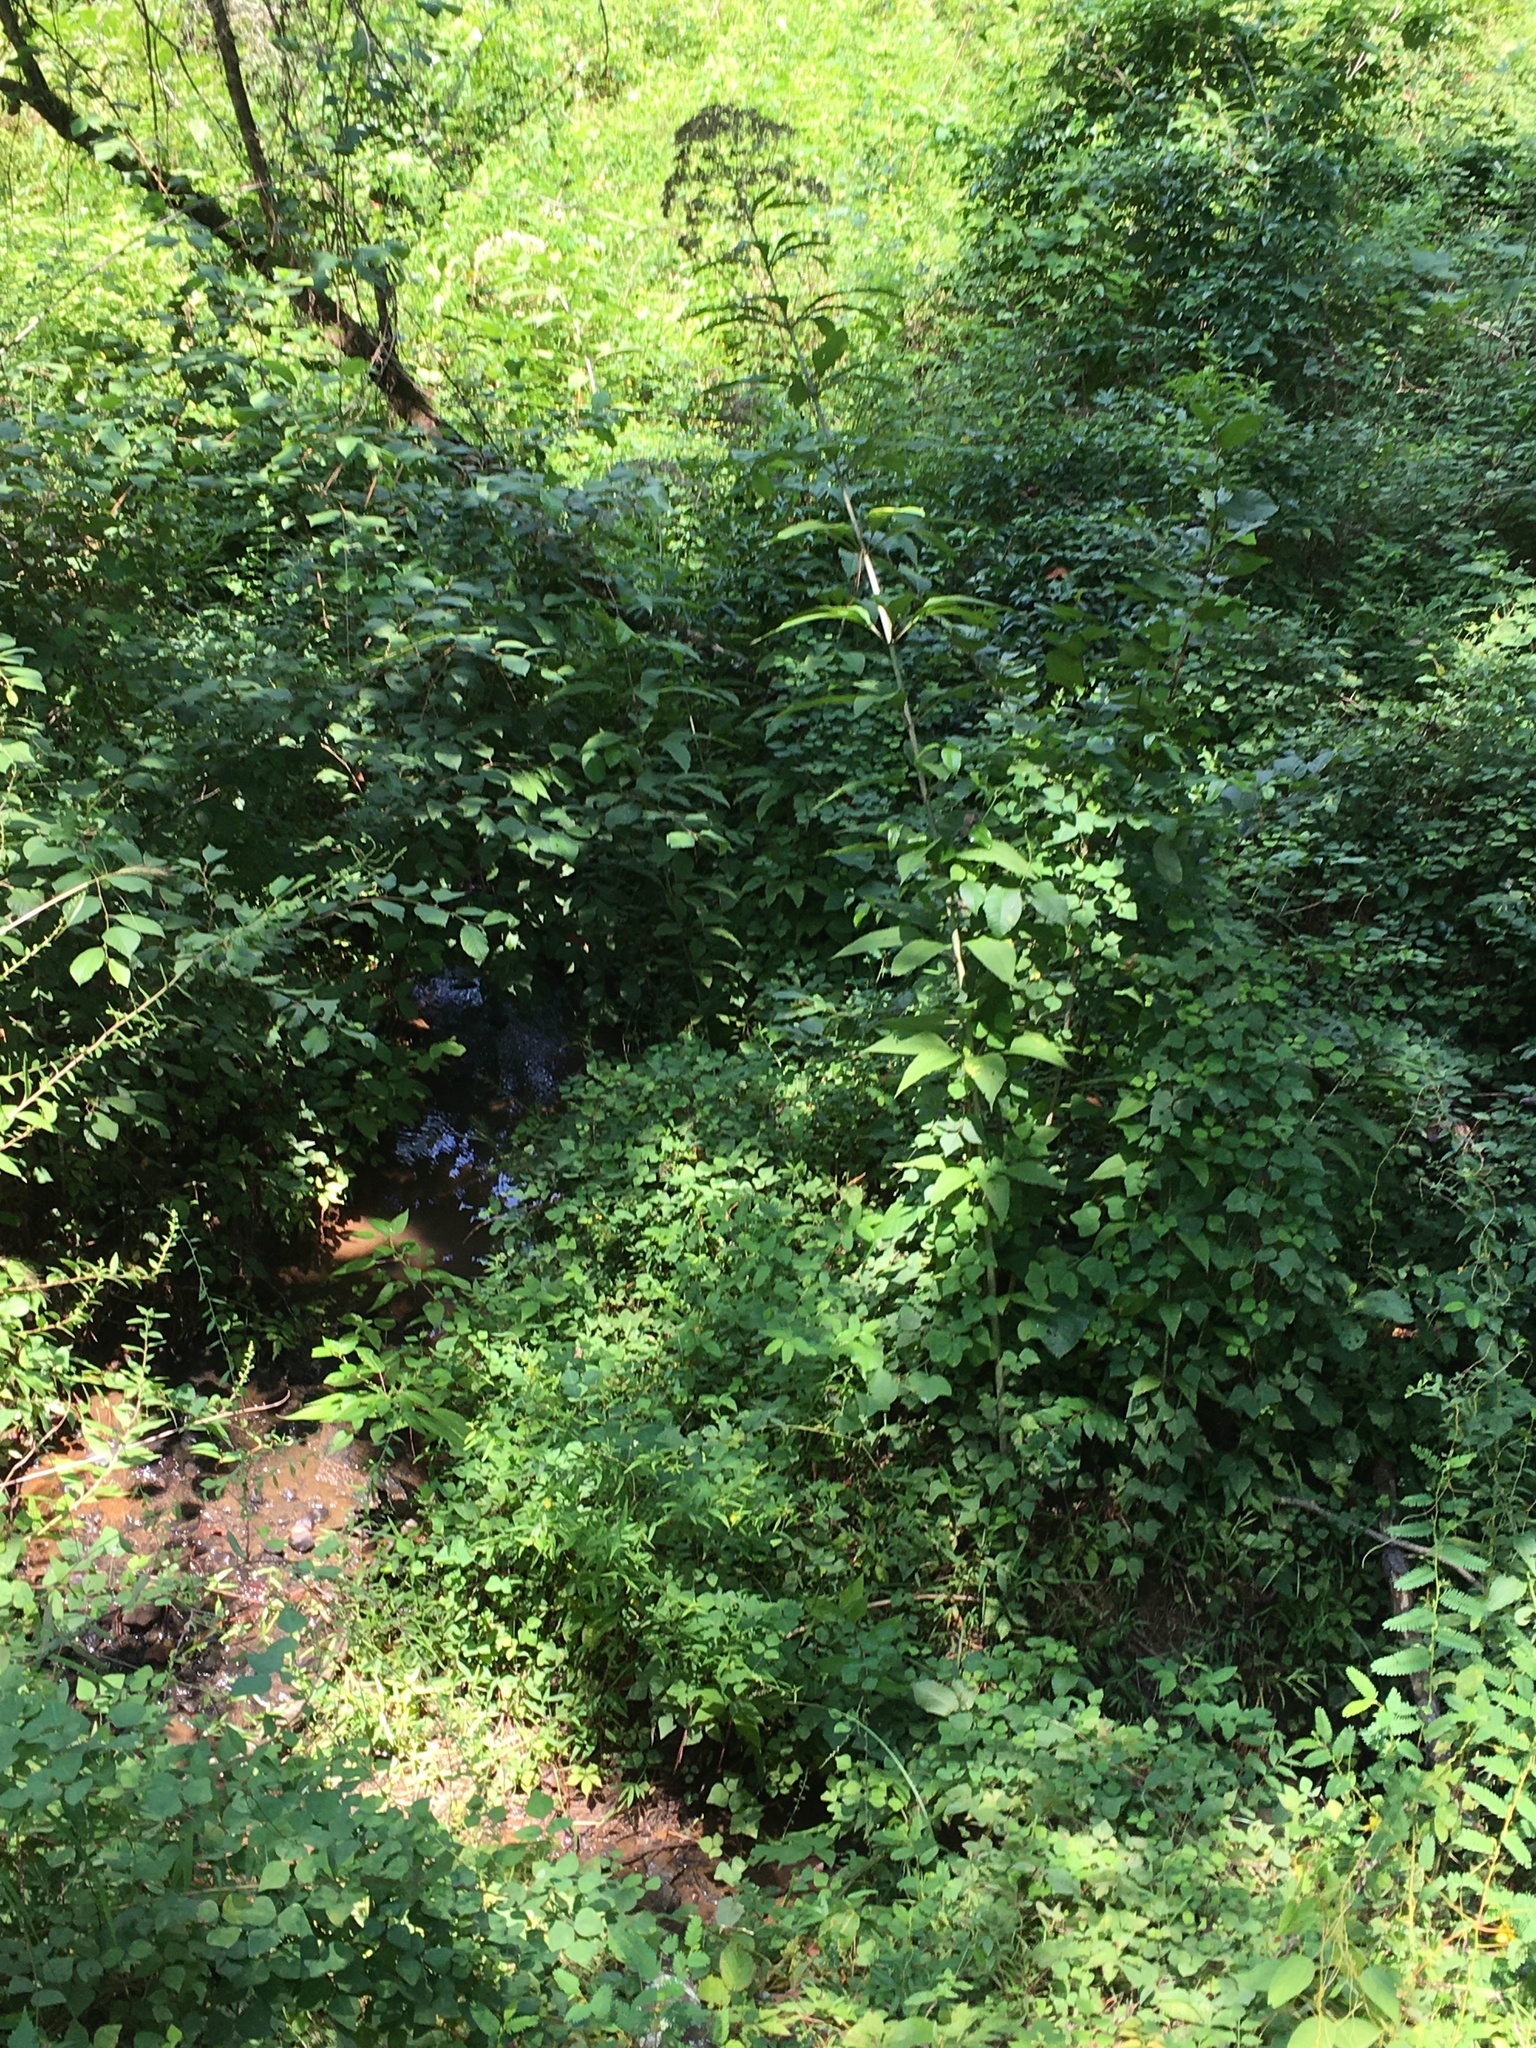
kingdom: Plantae
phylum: Tracheophyta
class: Magnoliopsida
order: Asterales
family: Asteraceae
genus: Eutrochium
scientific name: Eutrochium fistulosum
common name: Trumpetweed
